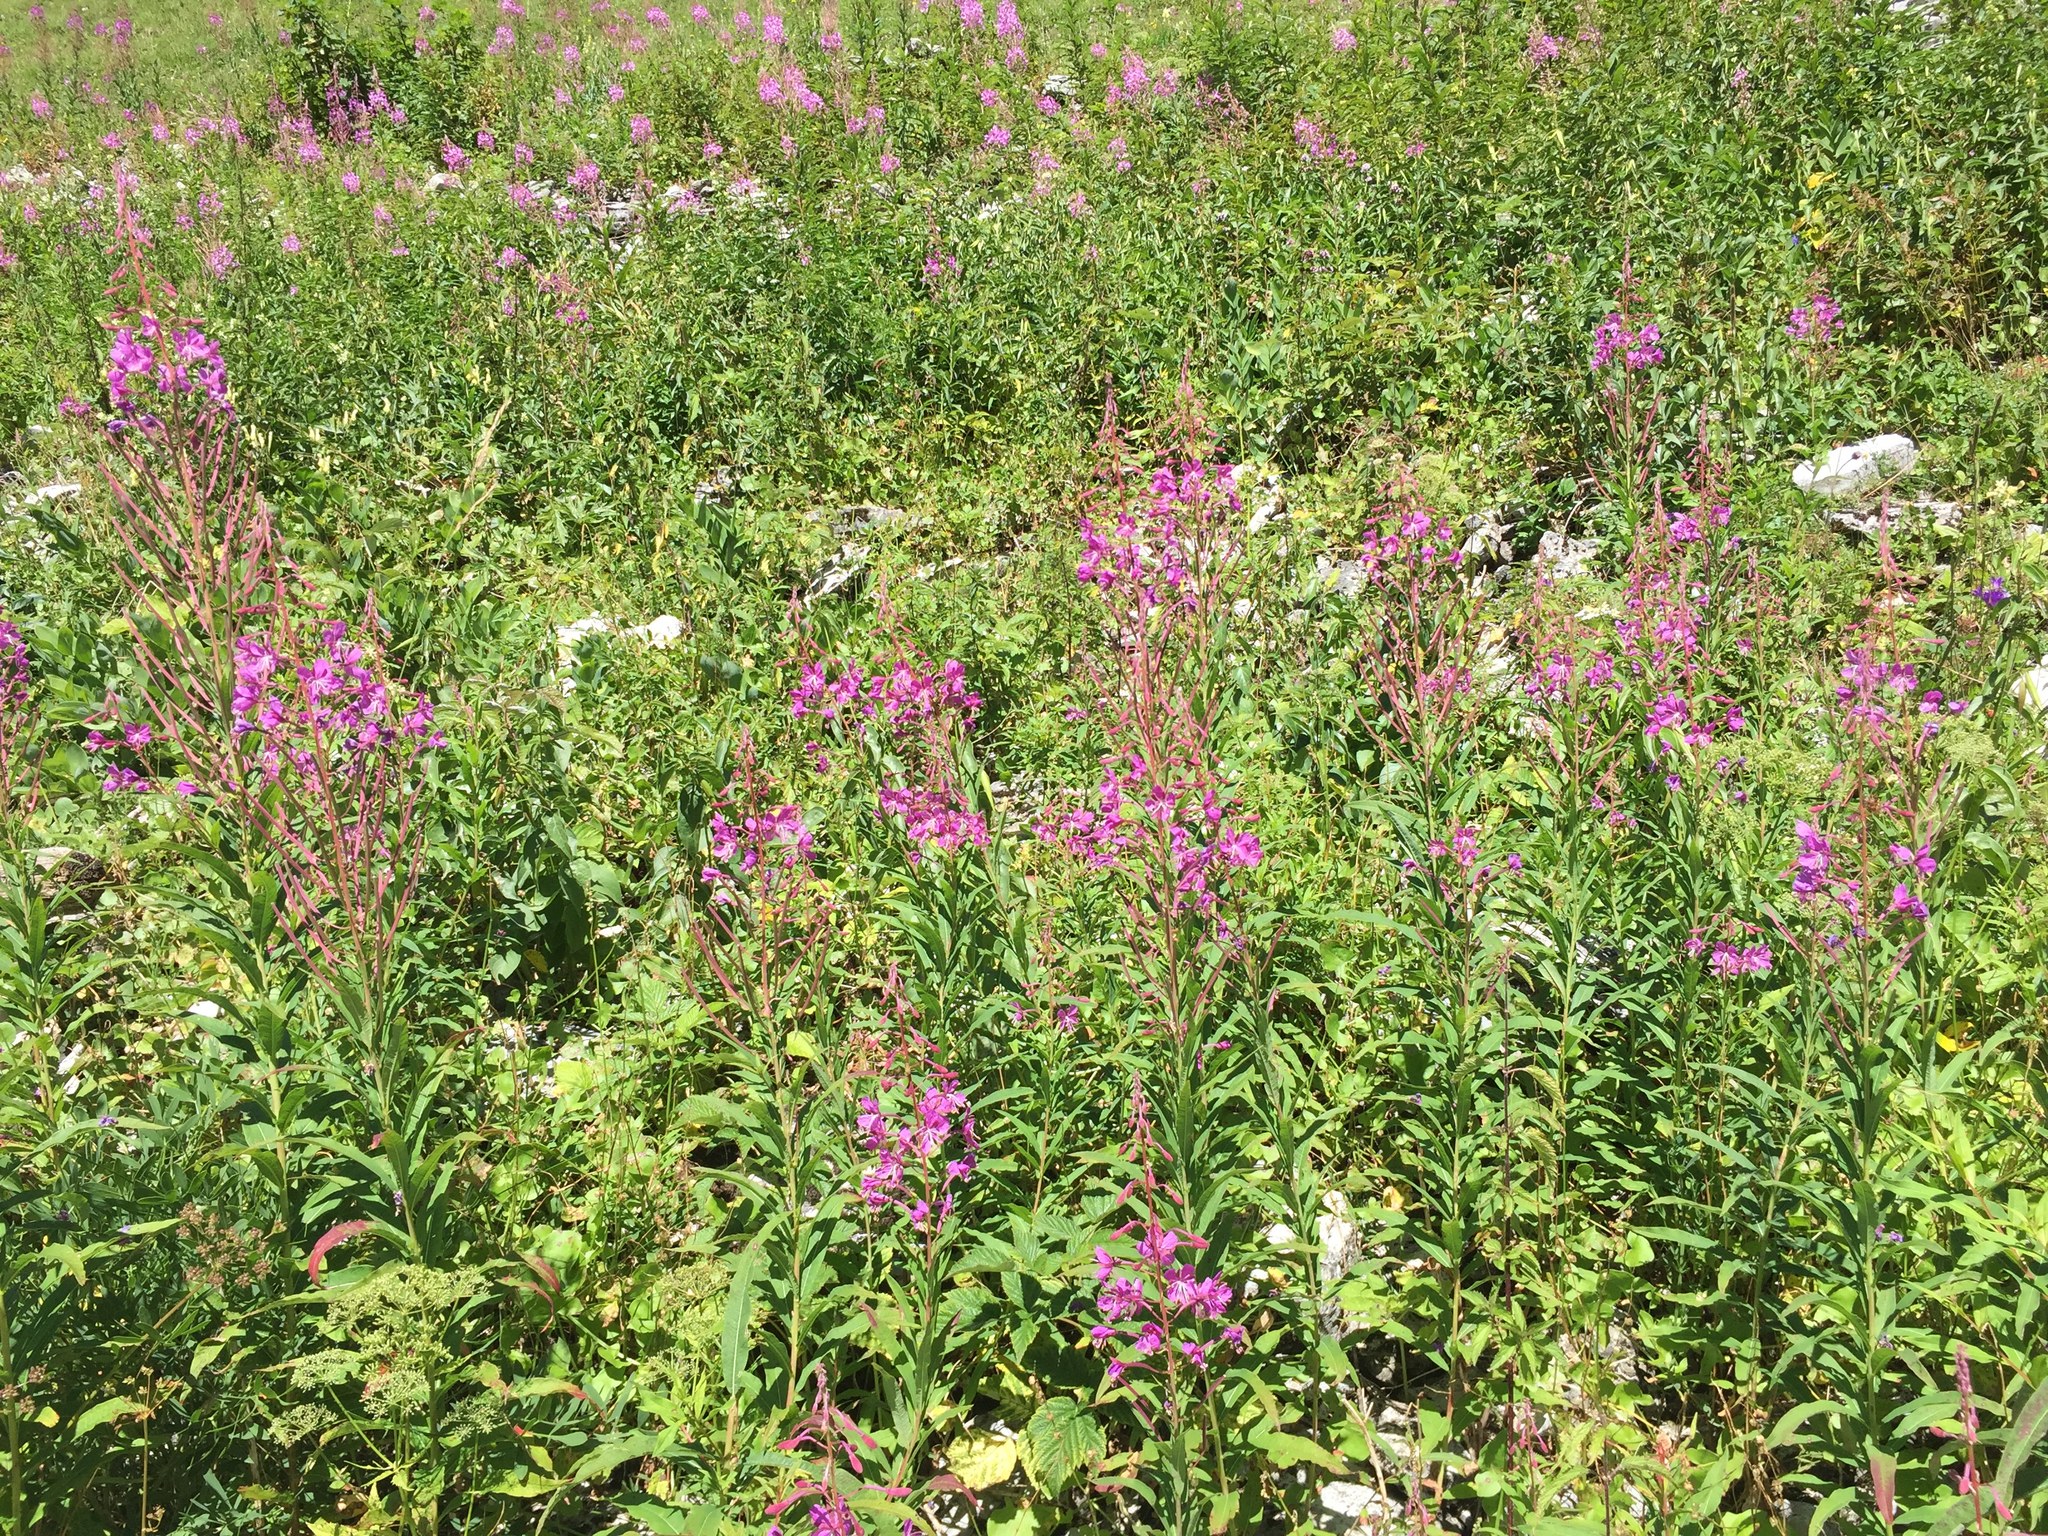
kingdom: Plantae
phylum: Tracheophyta
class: Magnoliopsida
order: Myrtales
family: Onagraceae
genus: Chamaenerion
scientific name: Chamaenerion angustifolium
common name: Fireweed
